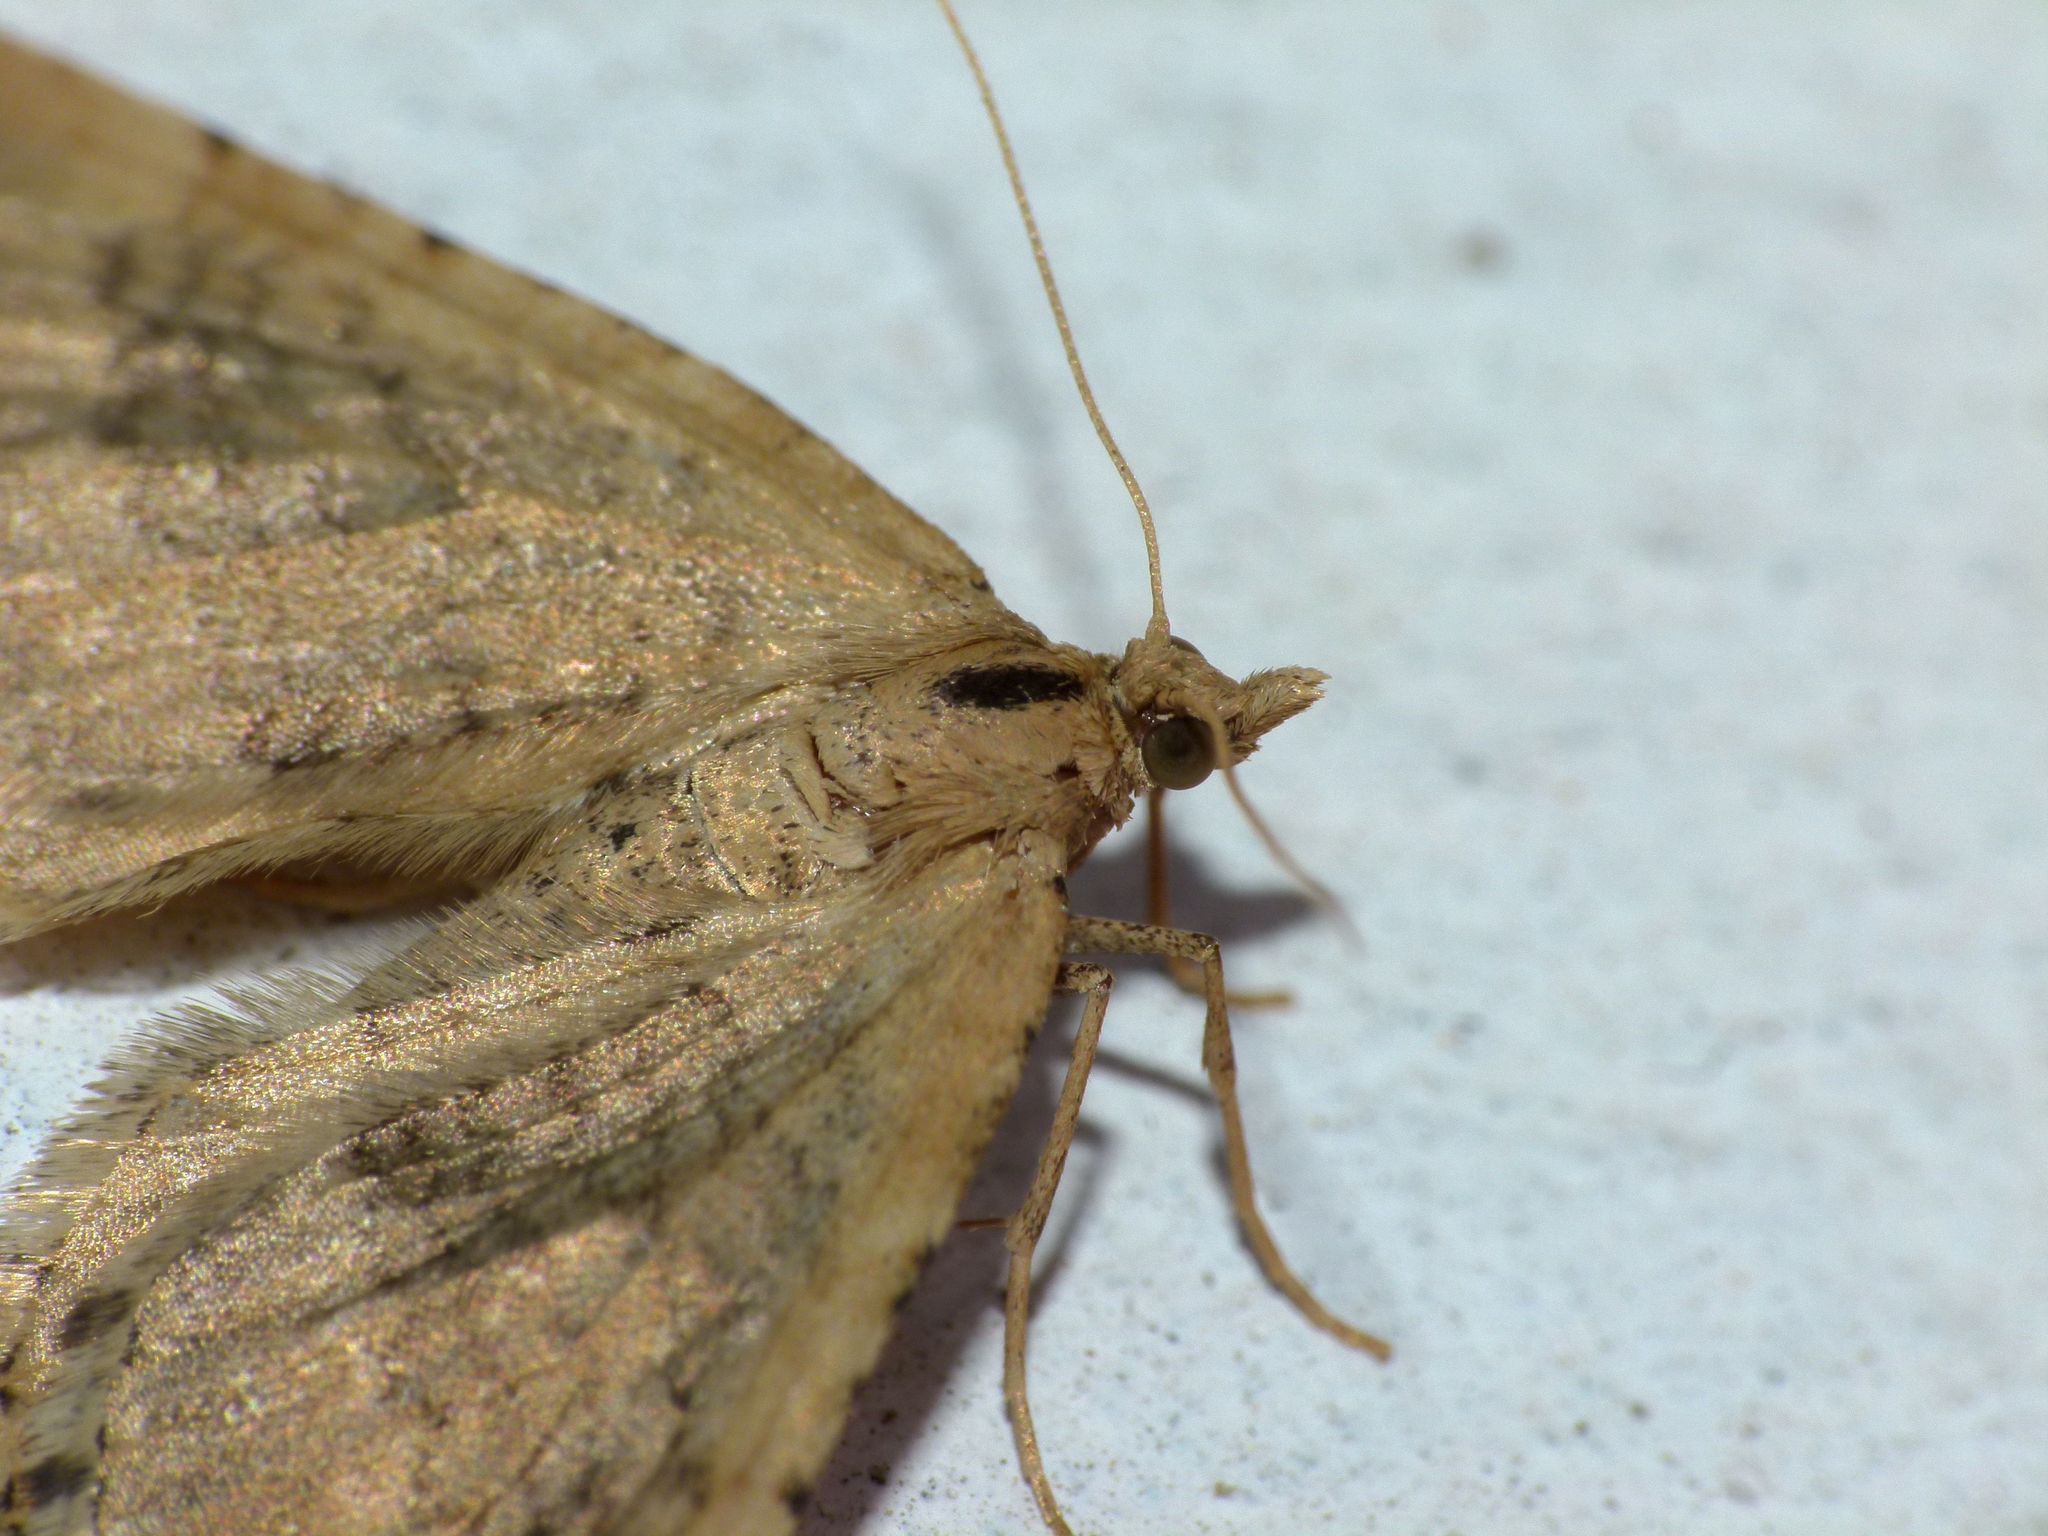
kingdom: Animalia
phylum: Arthropoda
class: Insecta
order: Lepidoptera
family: Geometridae
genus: Asaphodes
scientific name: Asaphodes aegrota
